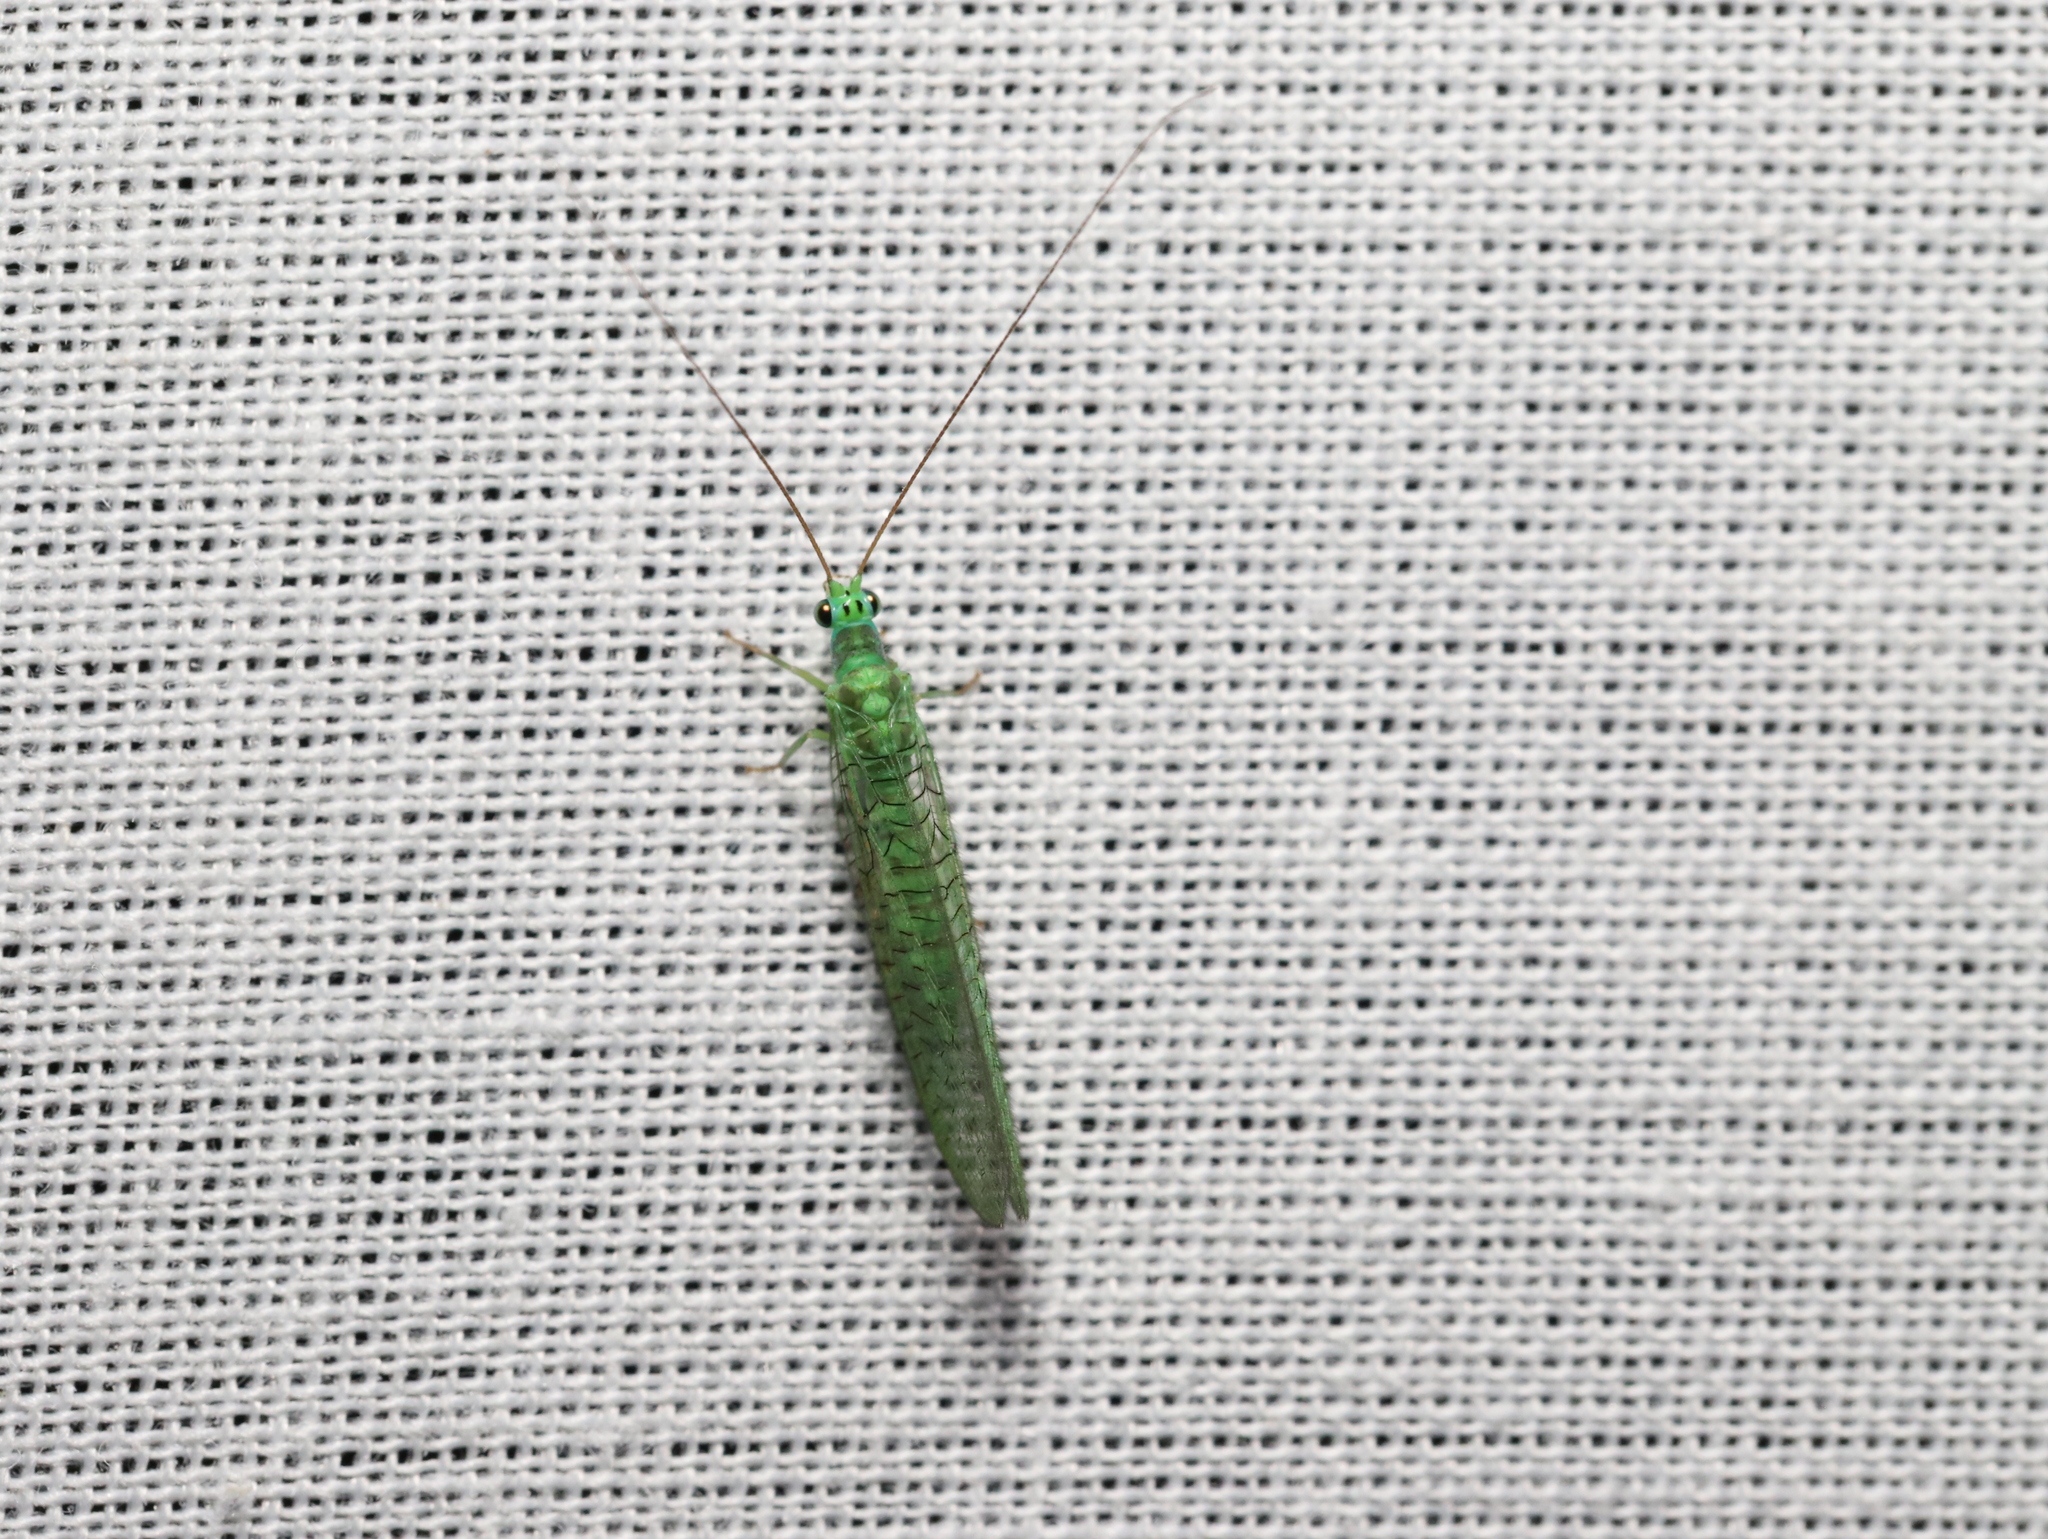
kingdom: Animalia
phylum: Arthropoda
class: Insecta
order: Neuroptera
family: Chrysopidae
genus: Mallada
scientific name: Mallada tripunctatus
